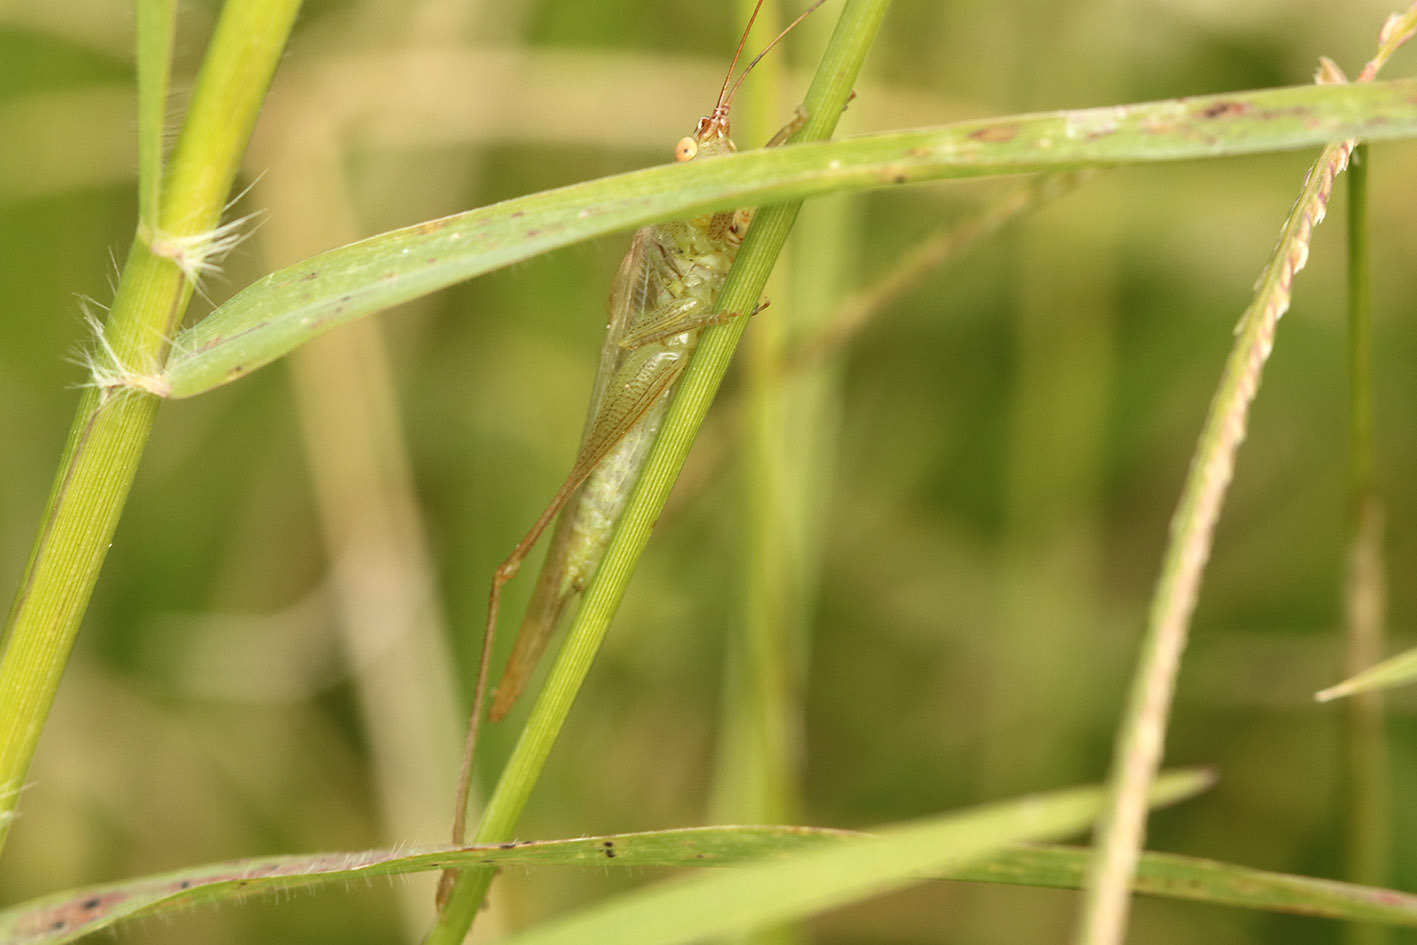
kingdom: Animalia
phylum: Arthropoda
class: Insecta
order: Orthoptera
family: Tettigoniidae
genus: Conocephalus
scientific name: Conocephalus longipes
